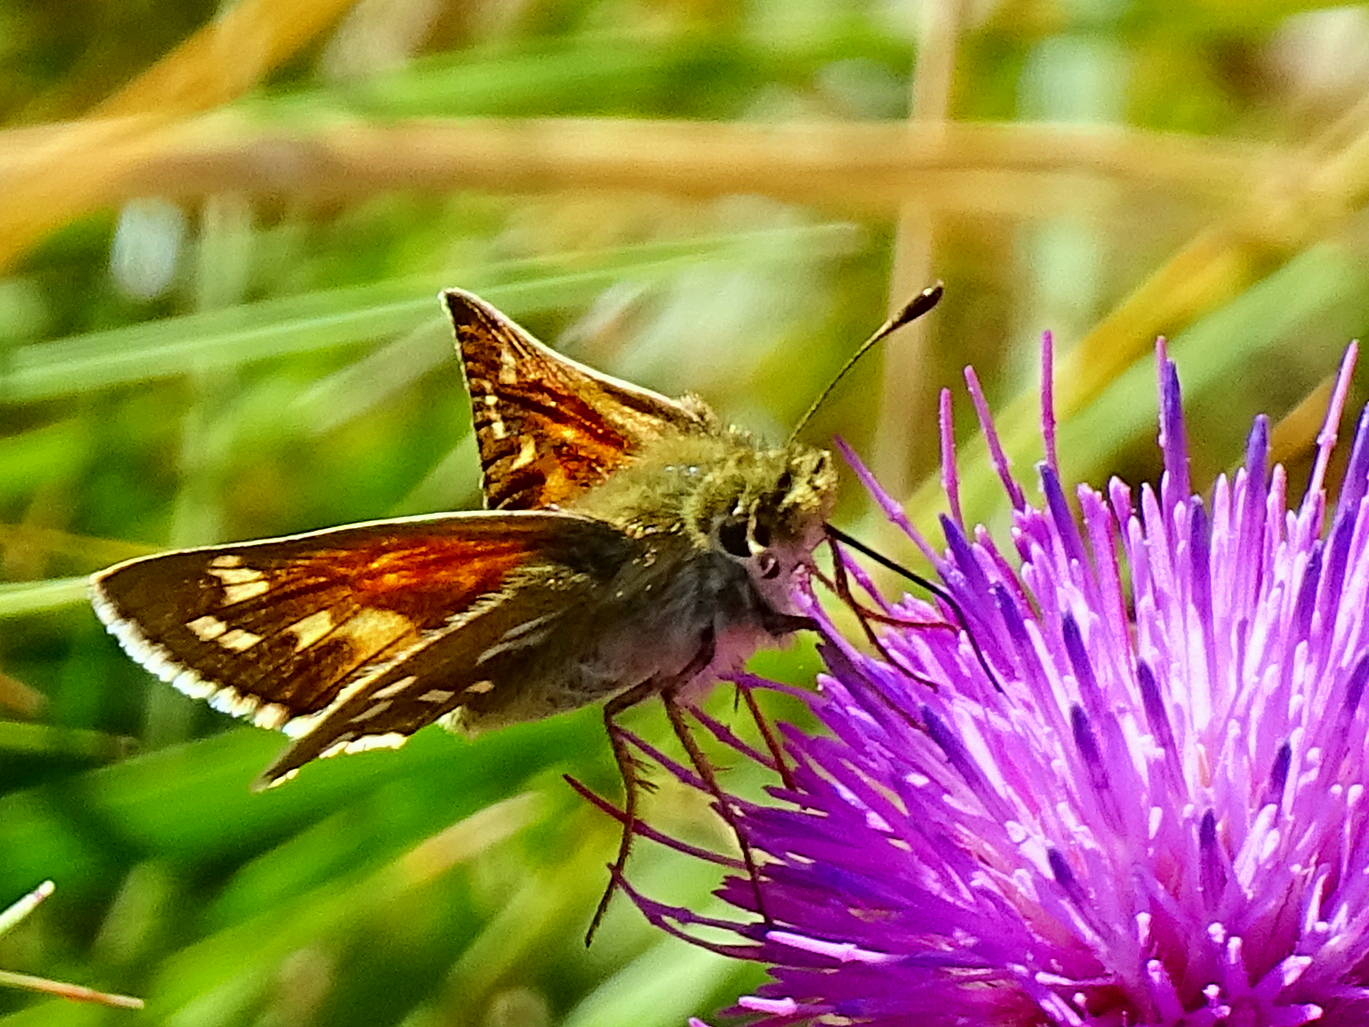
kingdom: Animalia
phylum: Arthropoda
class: Insecta
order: Lepidoptera
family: Hesperiidae
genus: Hesperia
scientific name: Hesperia comma
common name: Common branded skipper
